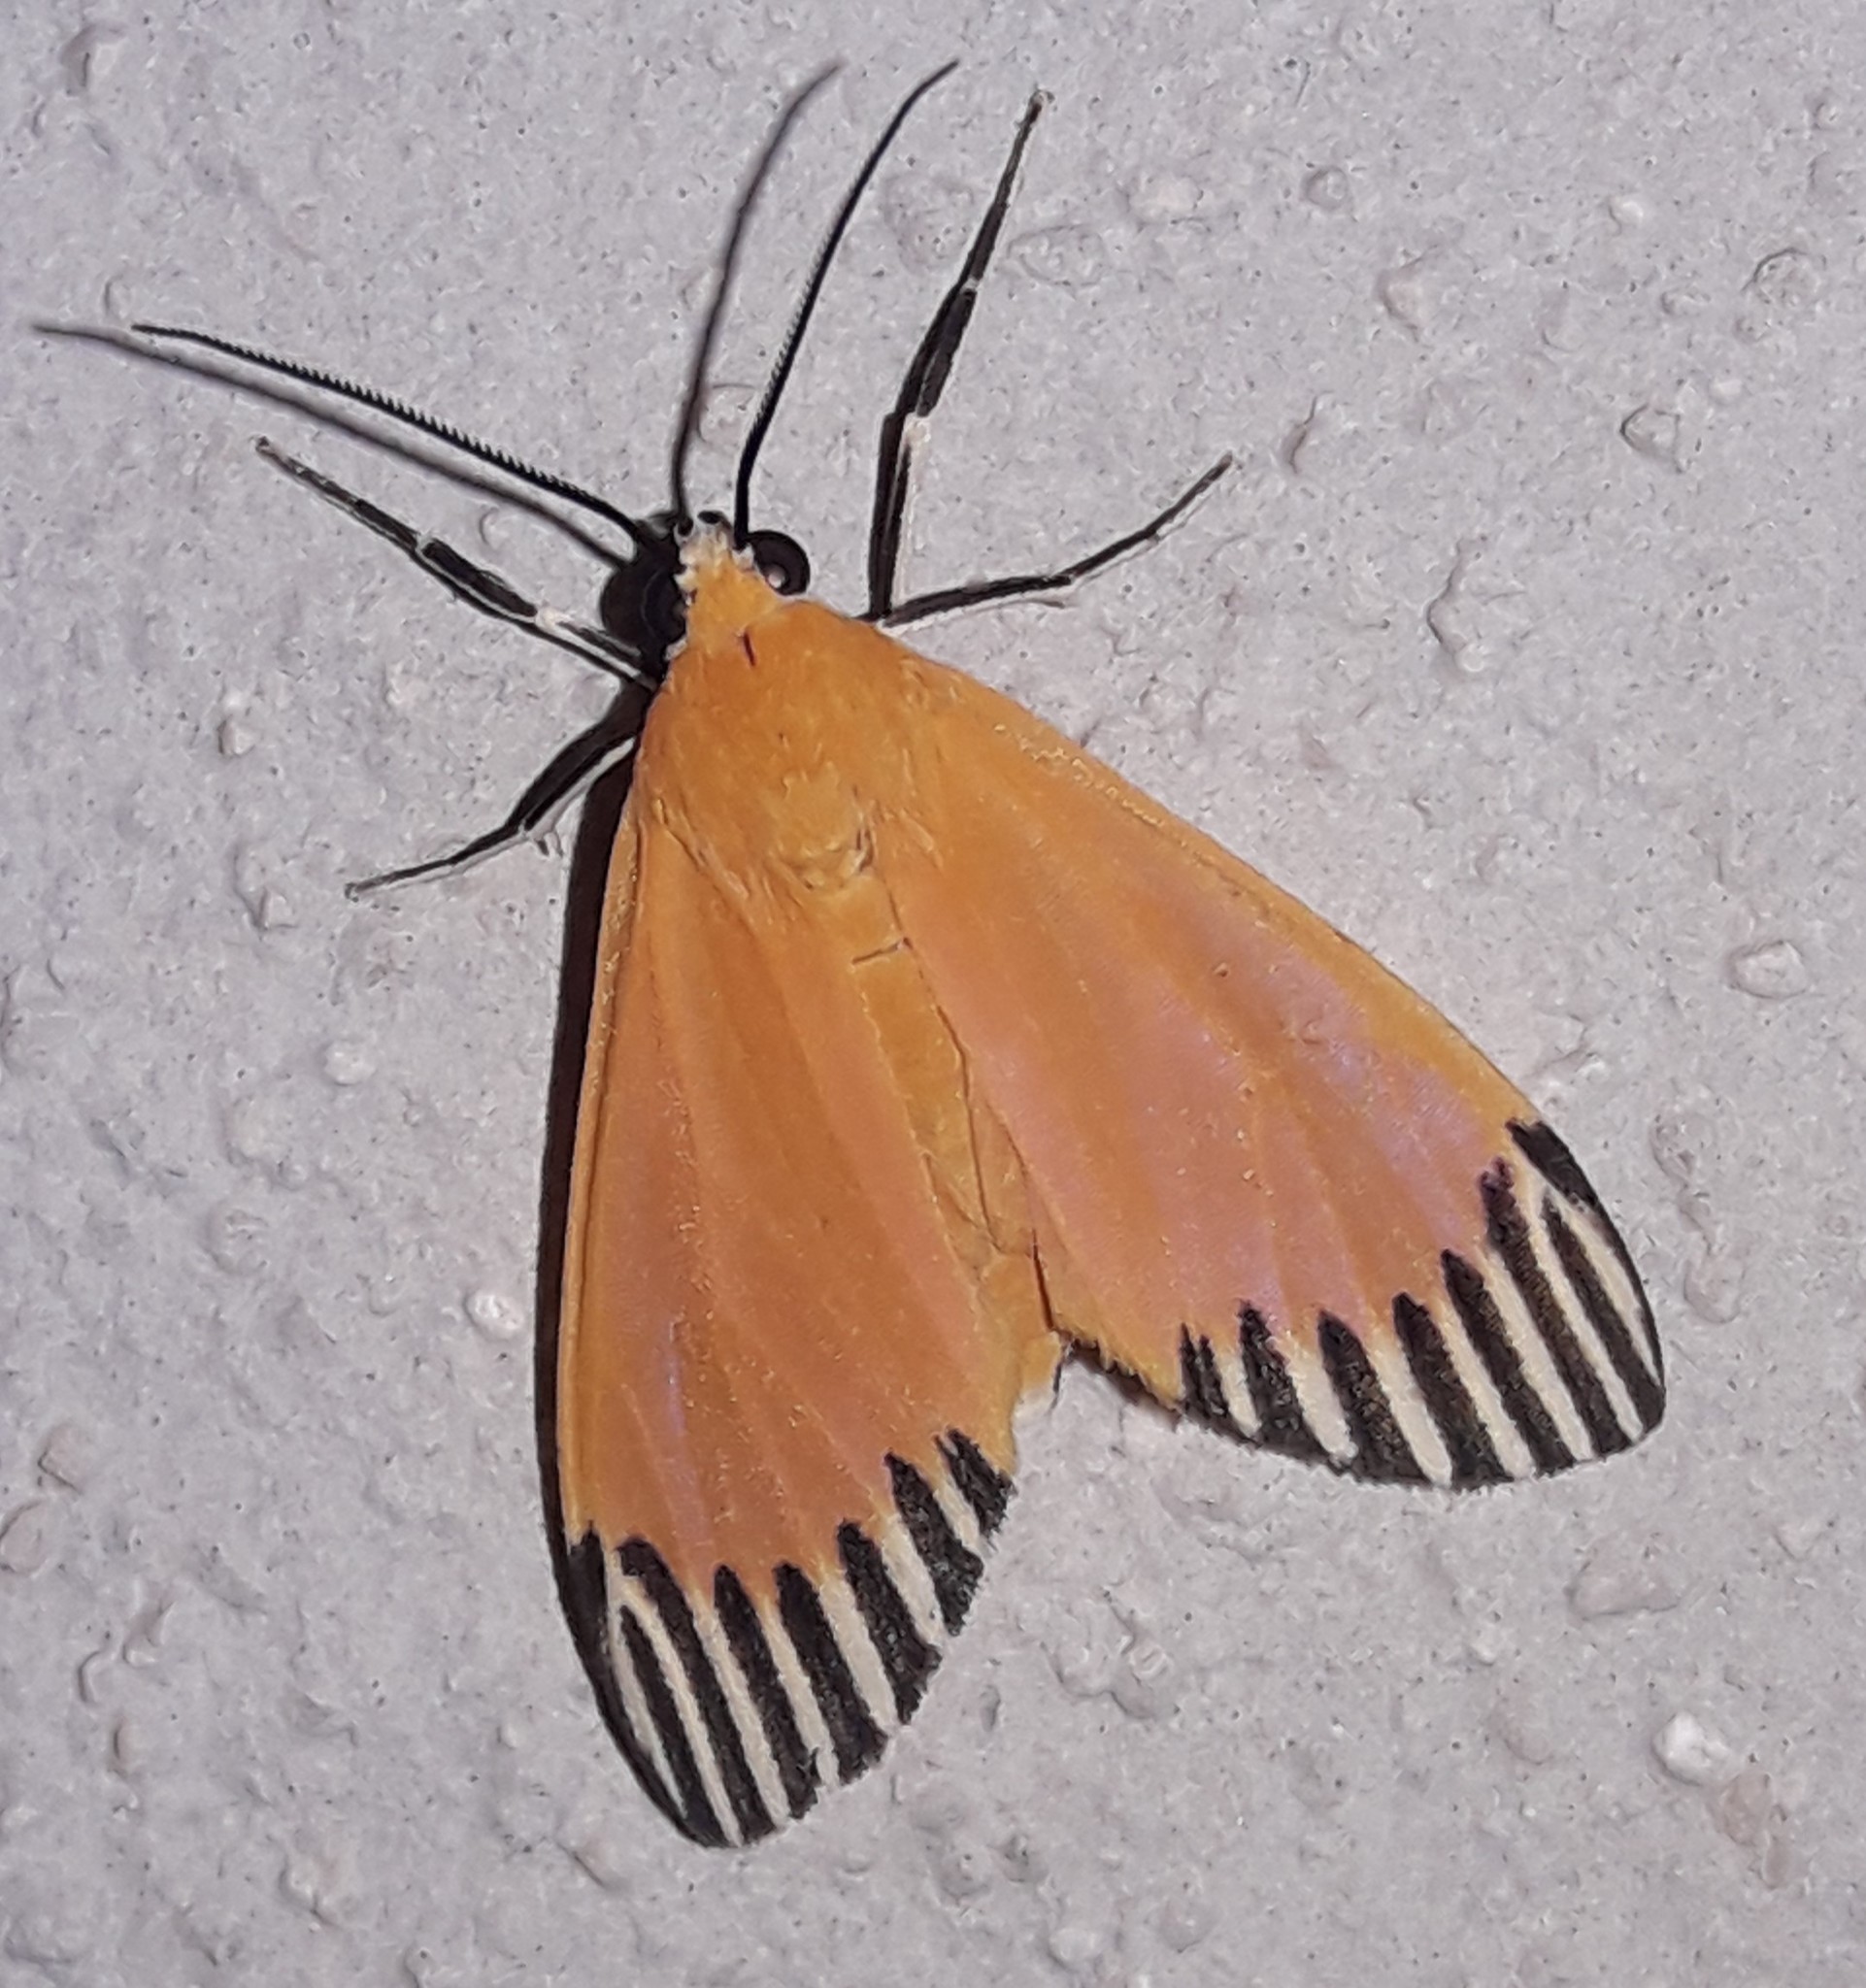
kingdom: Animalia
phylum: Arthropoda
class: Insecta
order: Lepidoptera
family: Erebidae
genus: Uranophora
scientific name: Uranophora walkeri
